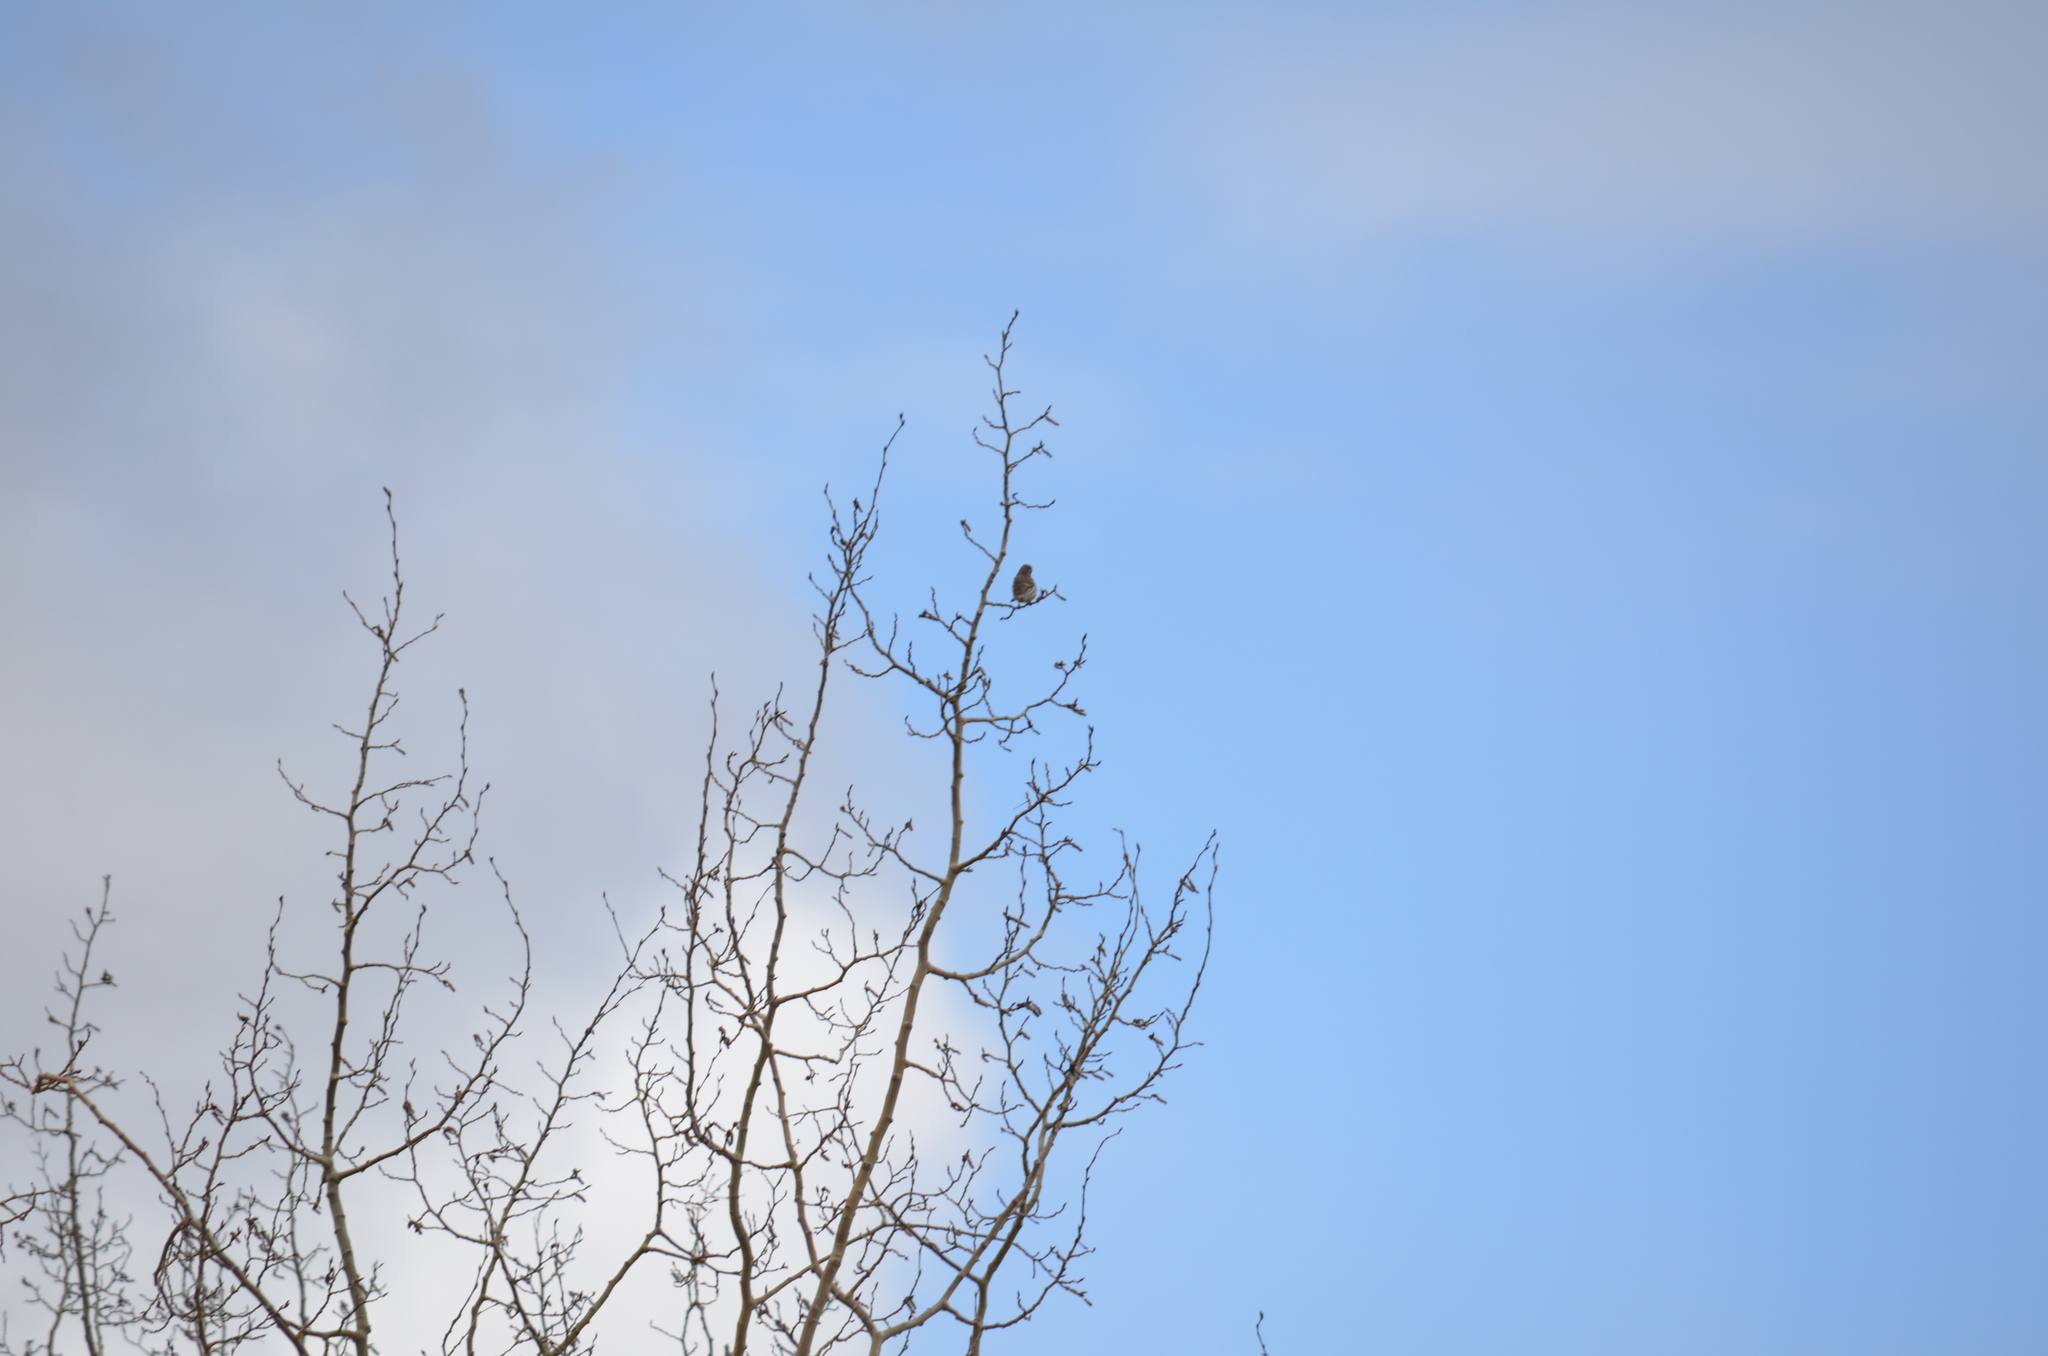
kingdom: Animalia
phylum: Chordata
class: Aves
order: Passeriformes
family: Fringillidae
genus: Haemorhous
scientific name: Haemorhous cassinii
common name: Cassin's finch
